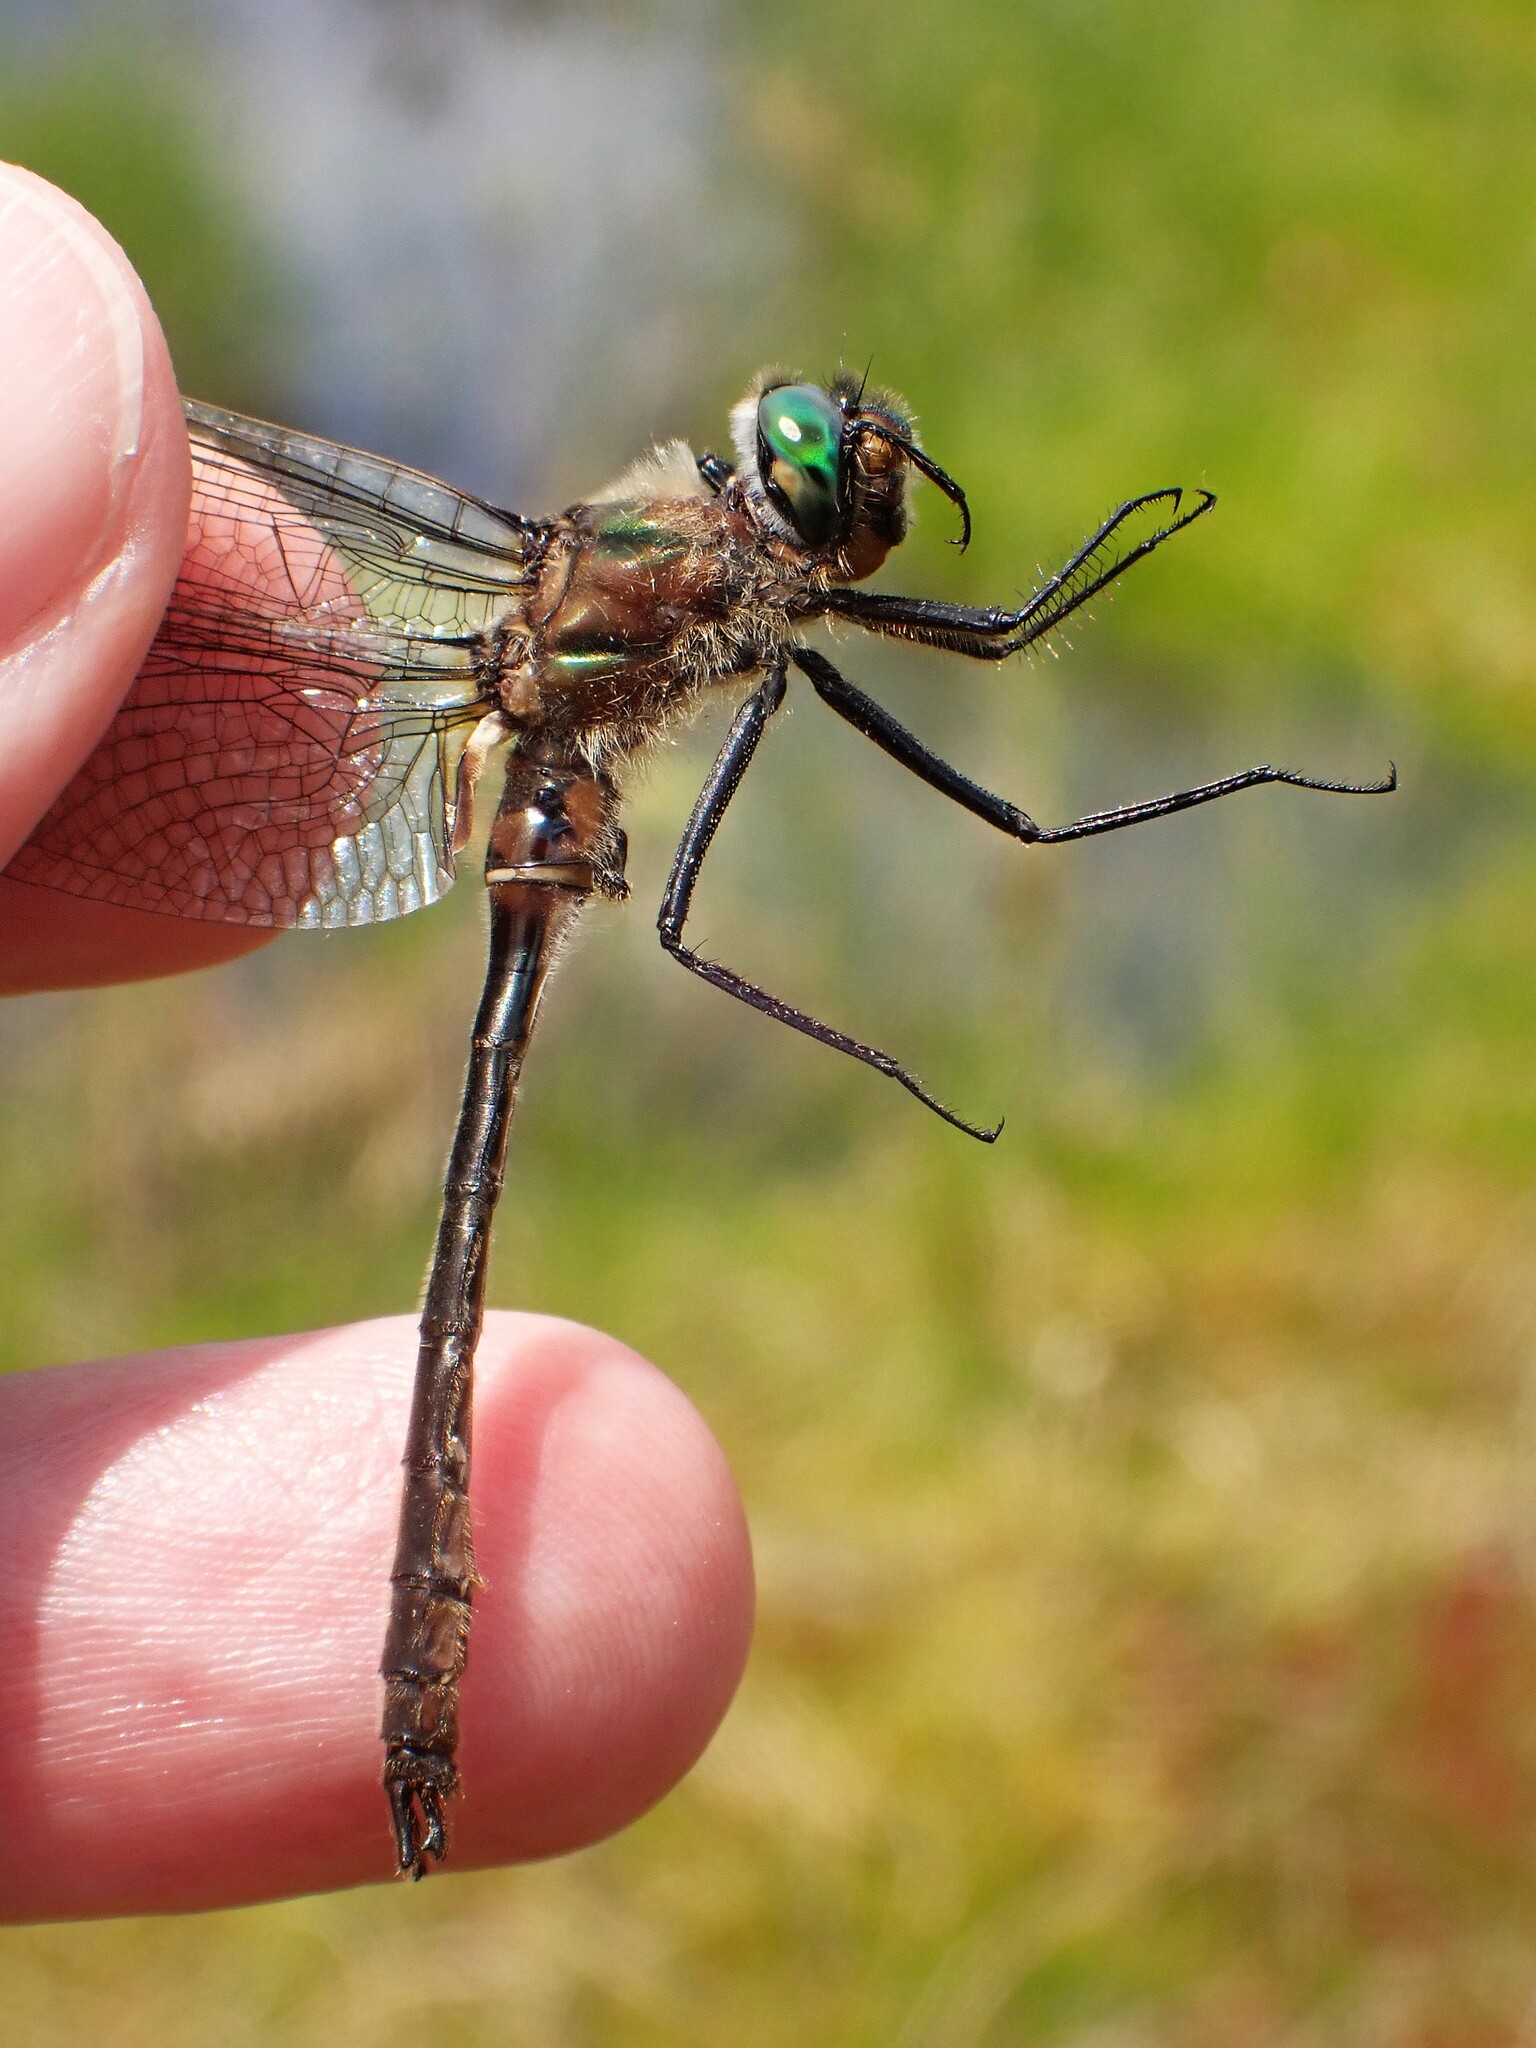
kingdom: Animalia
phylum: Arthropoda
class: Insecta
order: Odonata
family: Corduliidae
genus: Cordulia
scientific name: Cordulia shurtleffii
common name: American emerald
